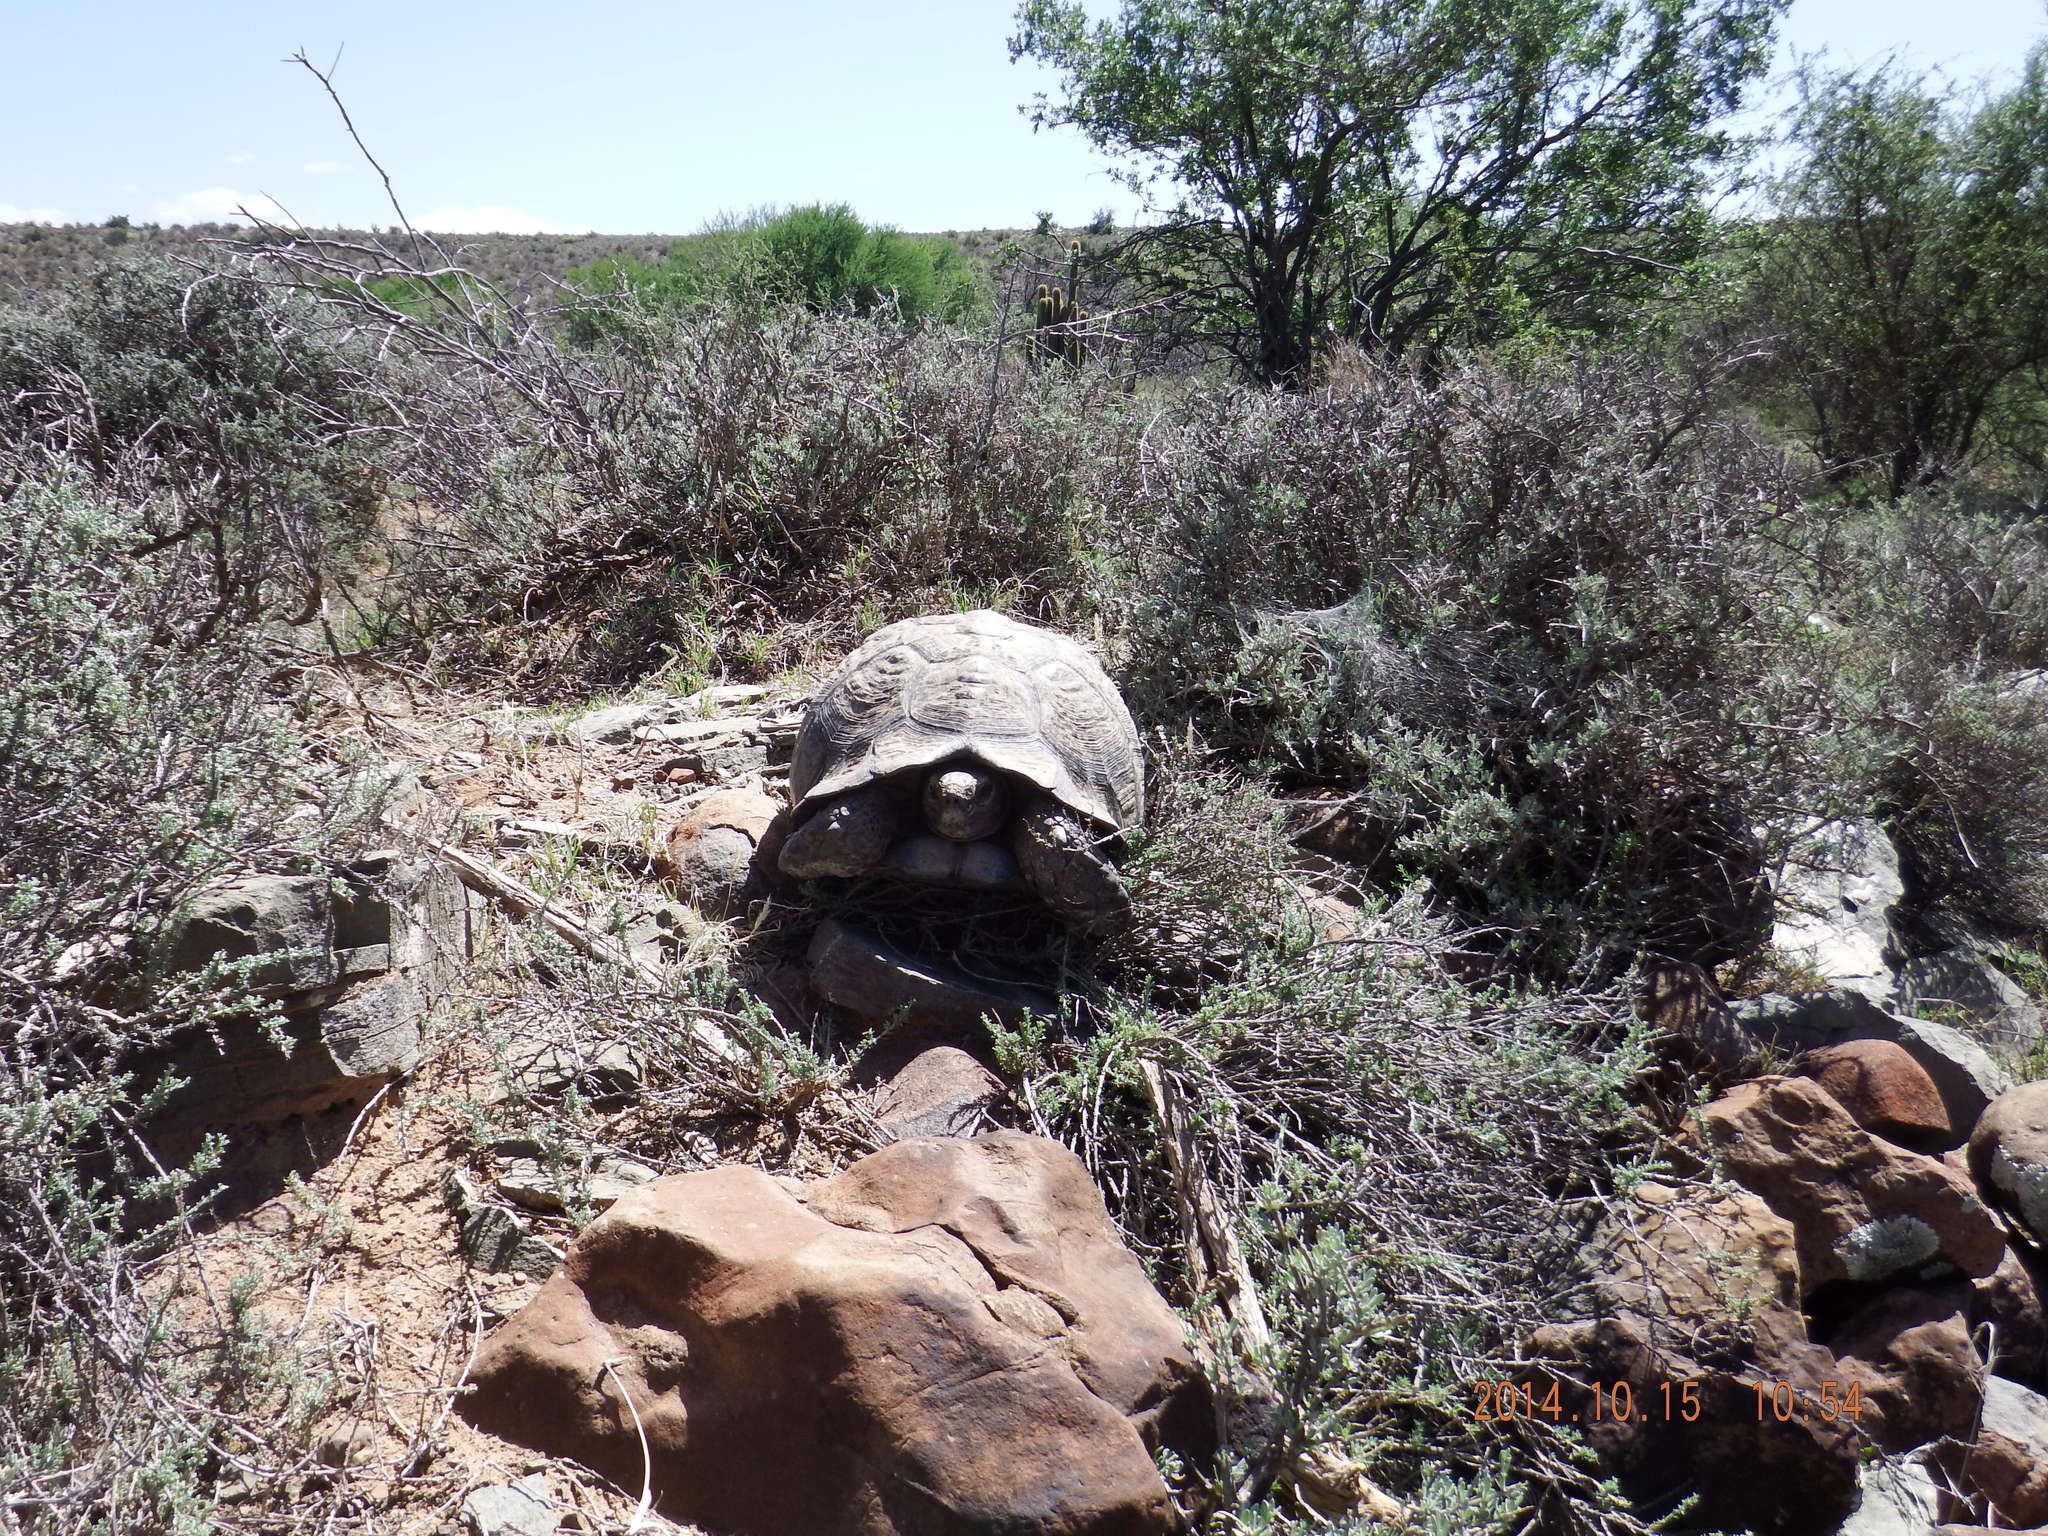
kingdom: Animalia
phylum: Chordata
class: Testudines
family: Testudinidae
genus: Stigmochelys
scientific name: Stigmochelys pardalis
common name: Leopard tortoise
